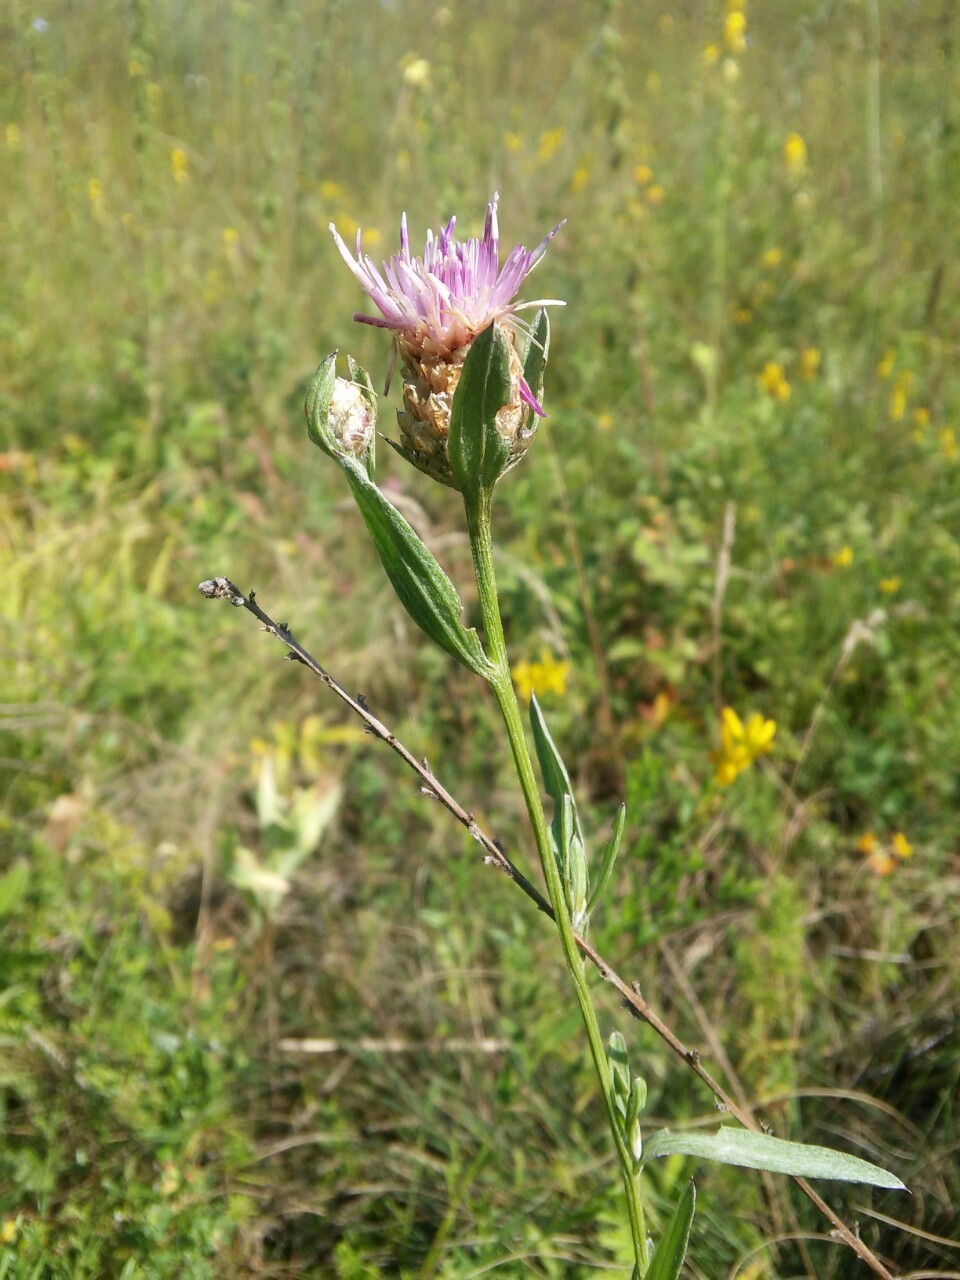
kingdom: Plantae
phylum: Tracheophyta
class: Magnoliopsida
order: Asterales
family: Asteraceae
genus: Centaurea
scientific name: Centaurea jacea
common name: Brown knapweed
